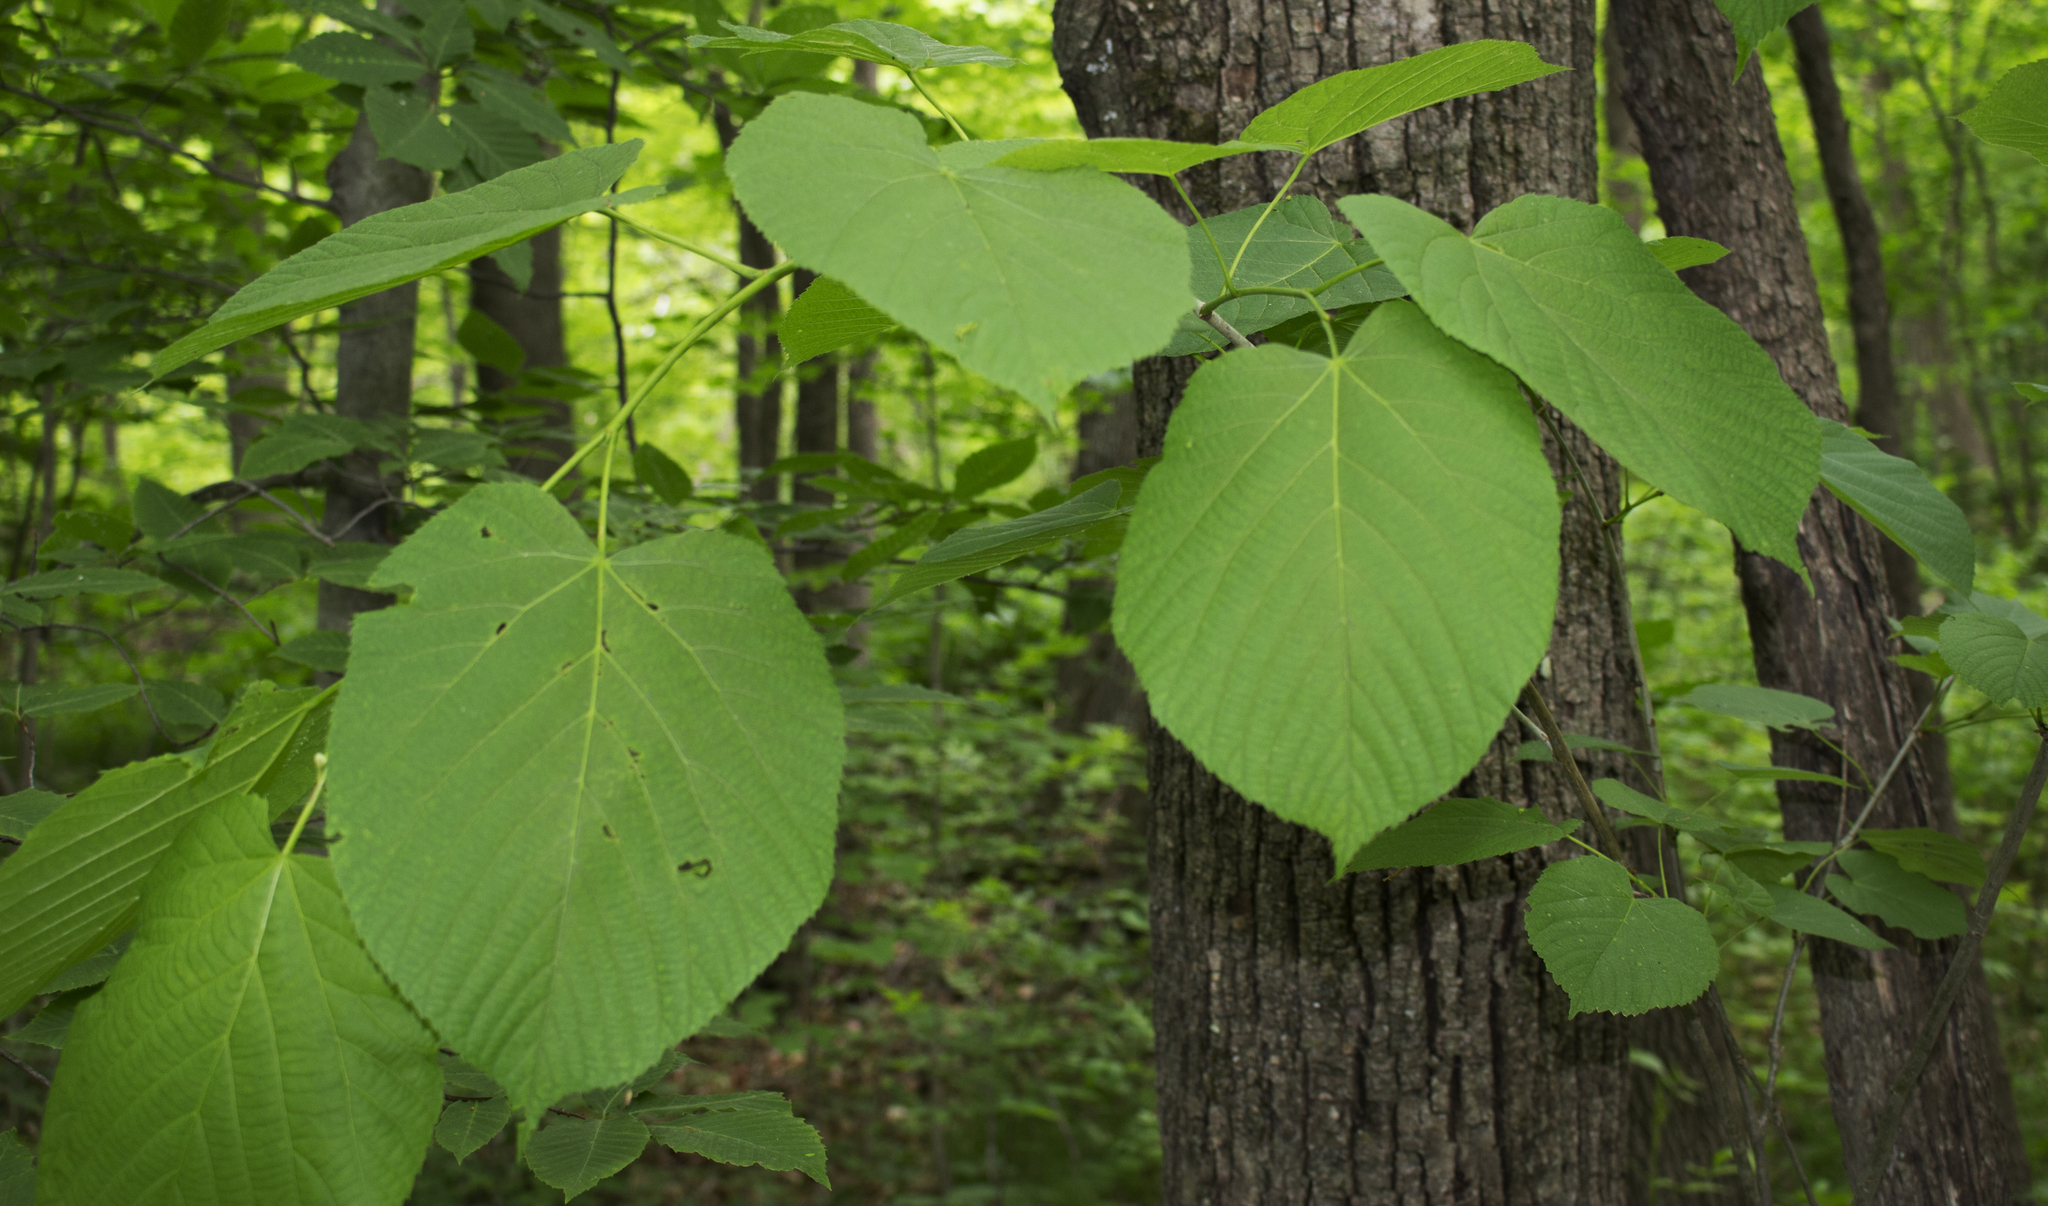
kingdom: Plantae
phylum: Tracheophyta
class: Magnoliopsida
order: Malvales
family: Malvaceae
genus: Tilia
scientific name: Tilia americana
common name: Basswood
